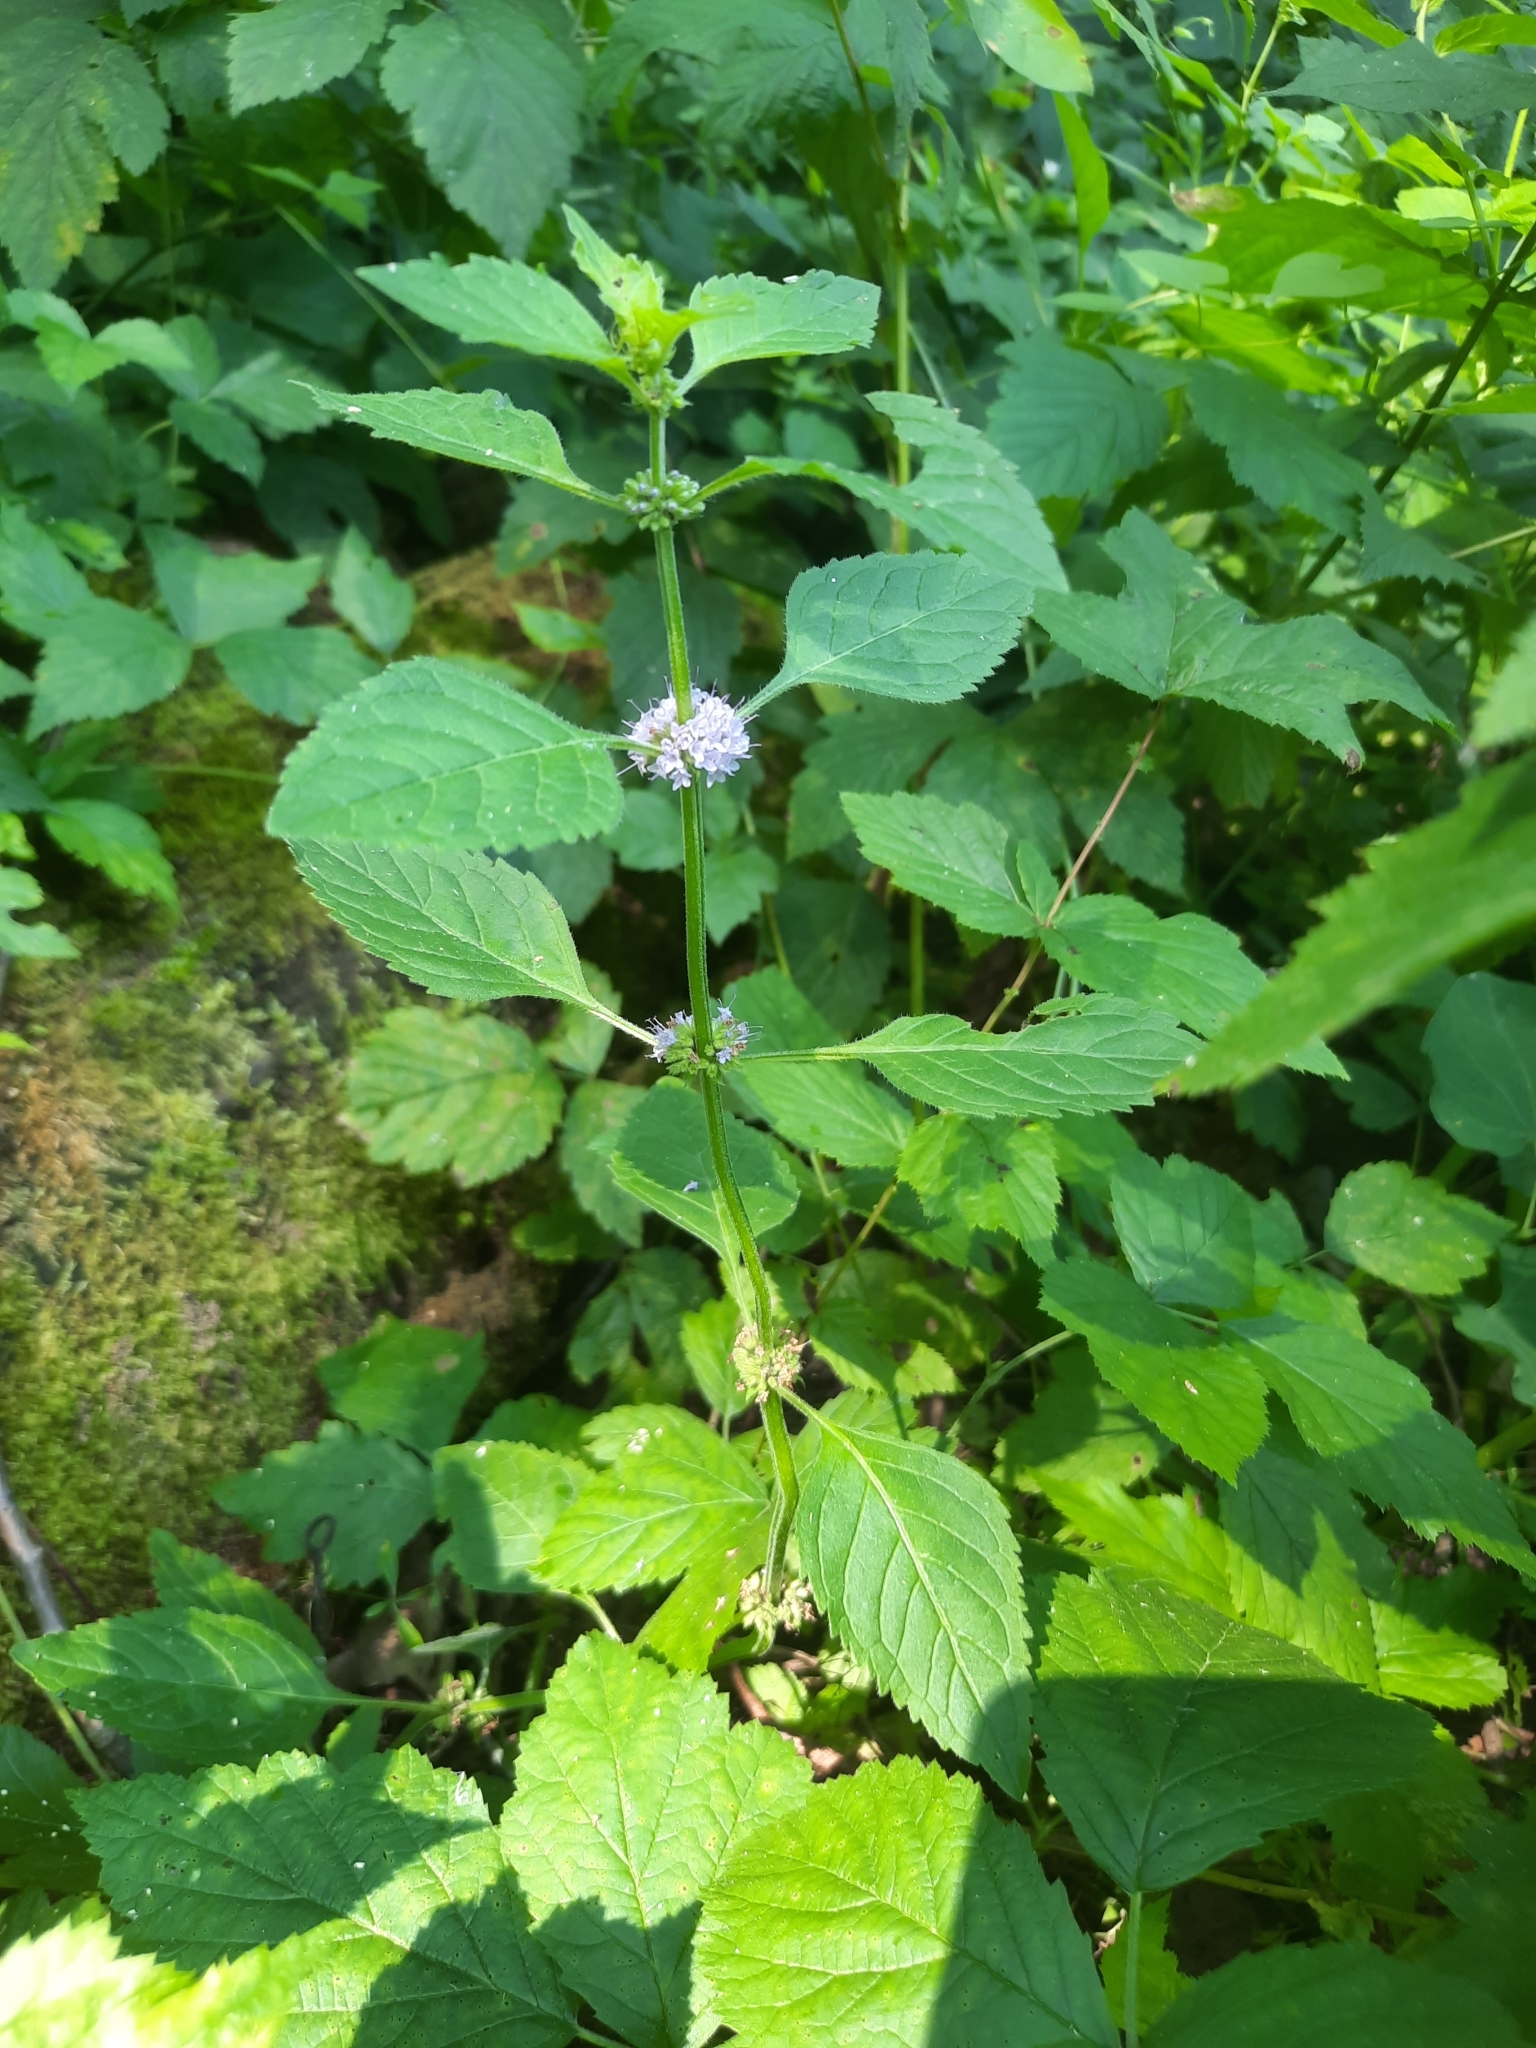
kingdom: Plantae
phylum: Tracheophyta
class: Magnoliopsida
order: Lamiales
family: Lamiaceae
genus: Mentha
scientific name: Mentha arvensis
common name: Corn mint
